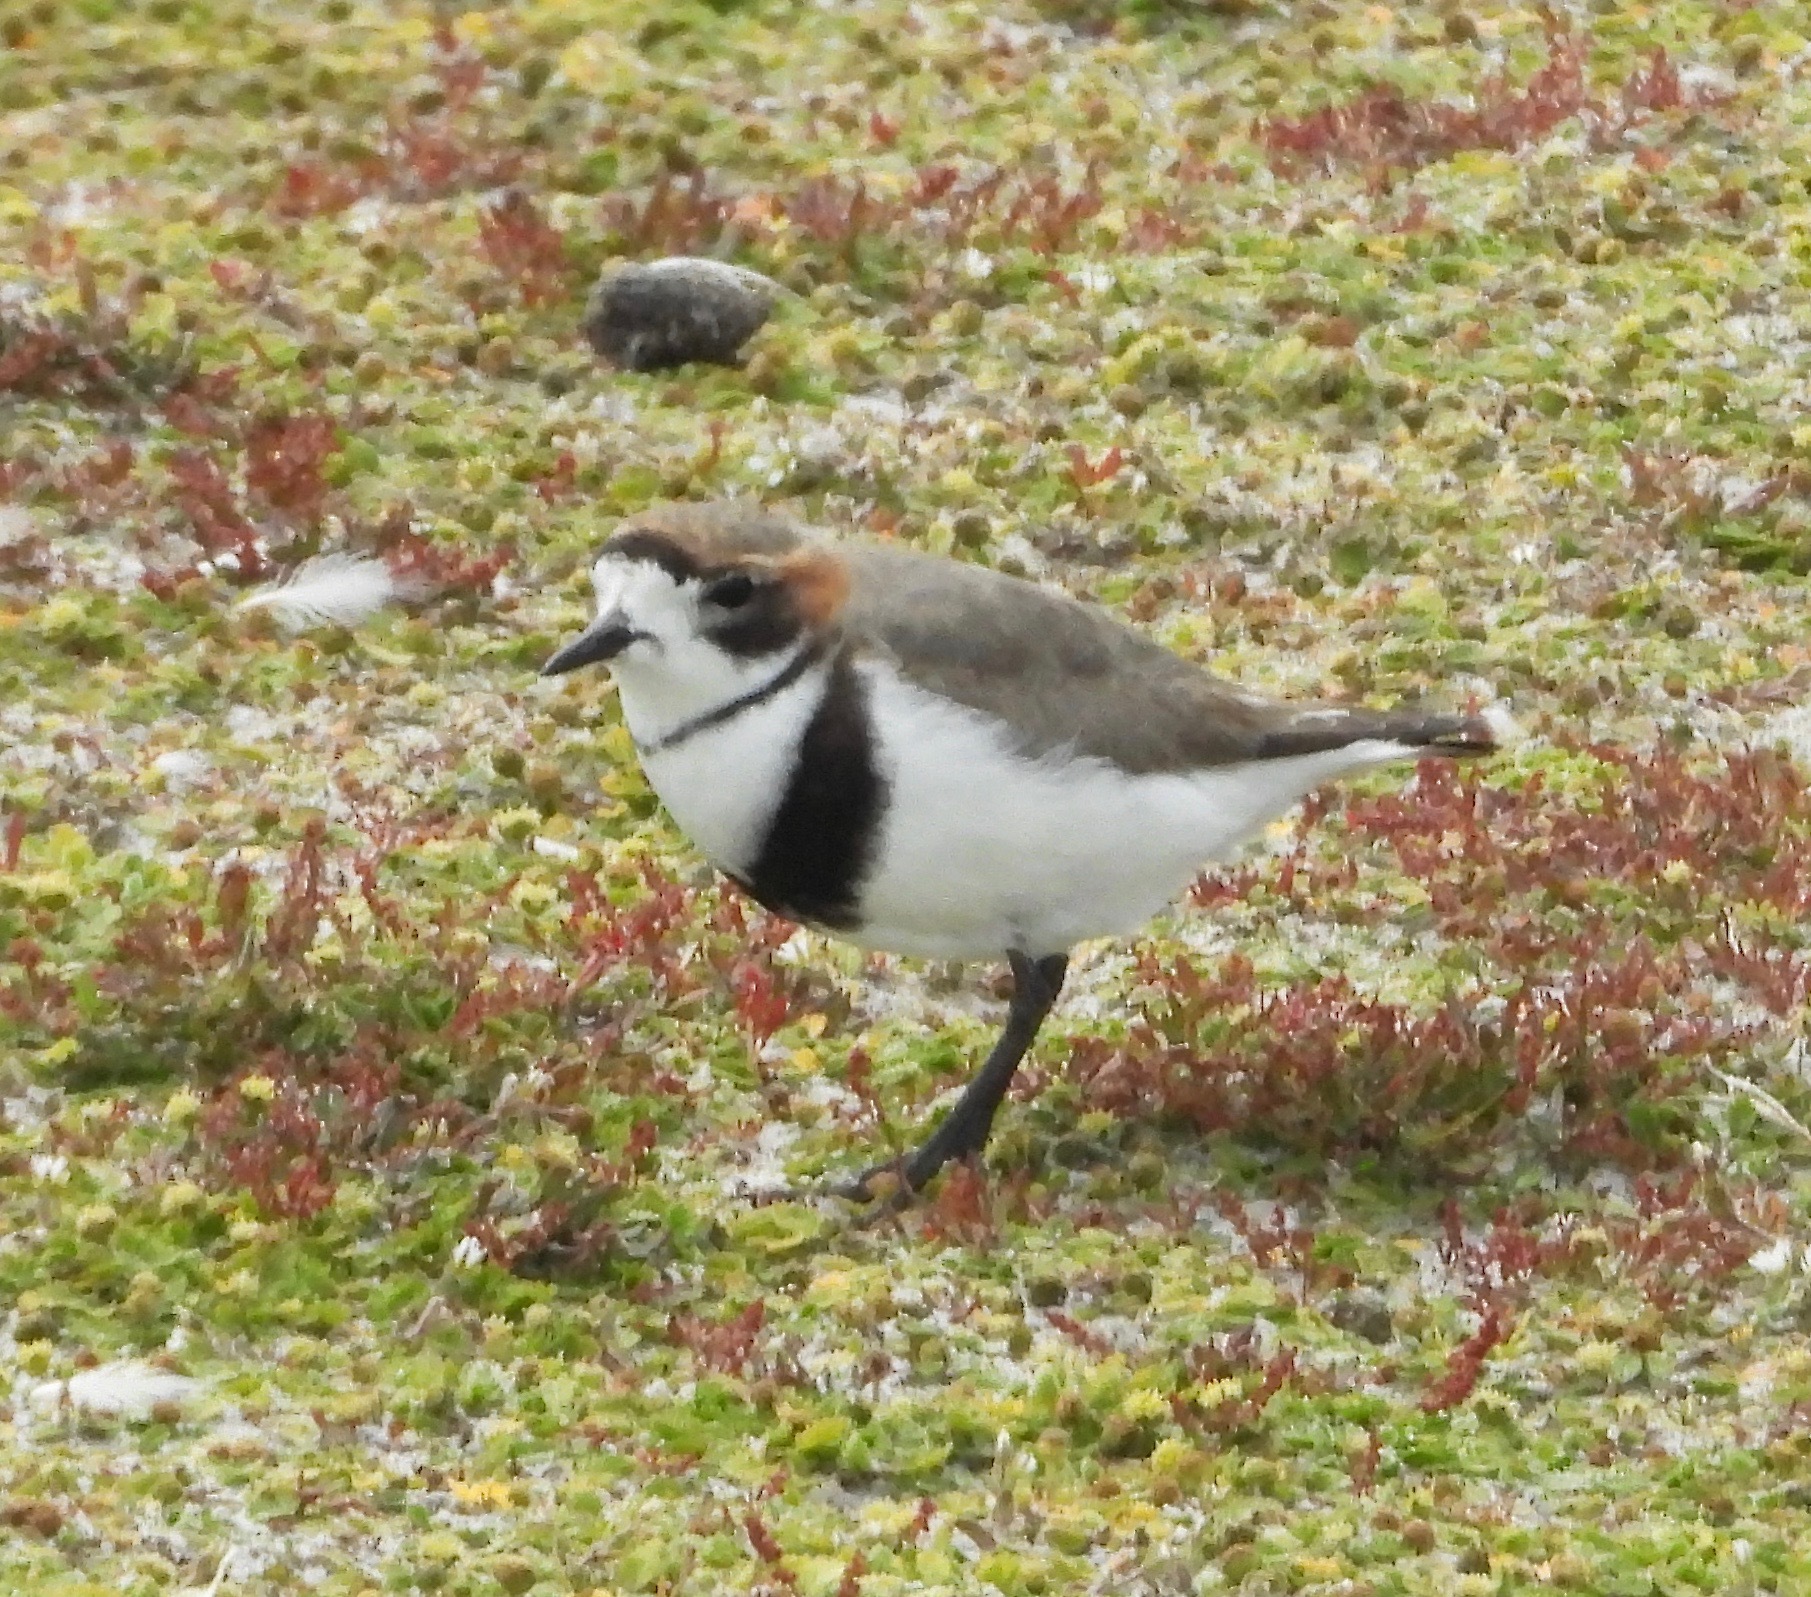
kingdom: Animalia
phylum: Chordata
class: Aves
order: Charadriiformes
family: Charadriidae
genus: Anarhynchus
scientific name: Anarhynchus
